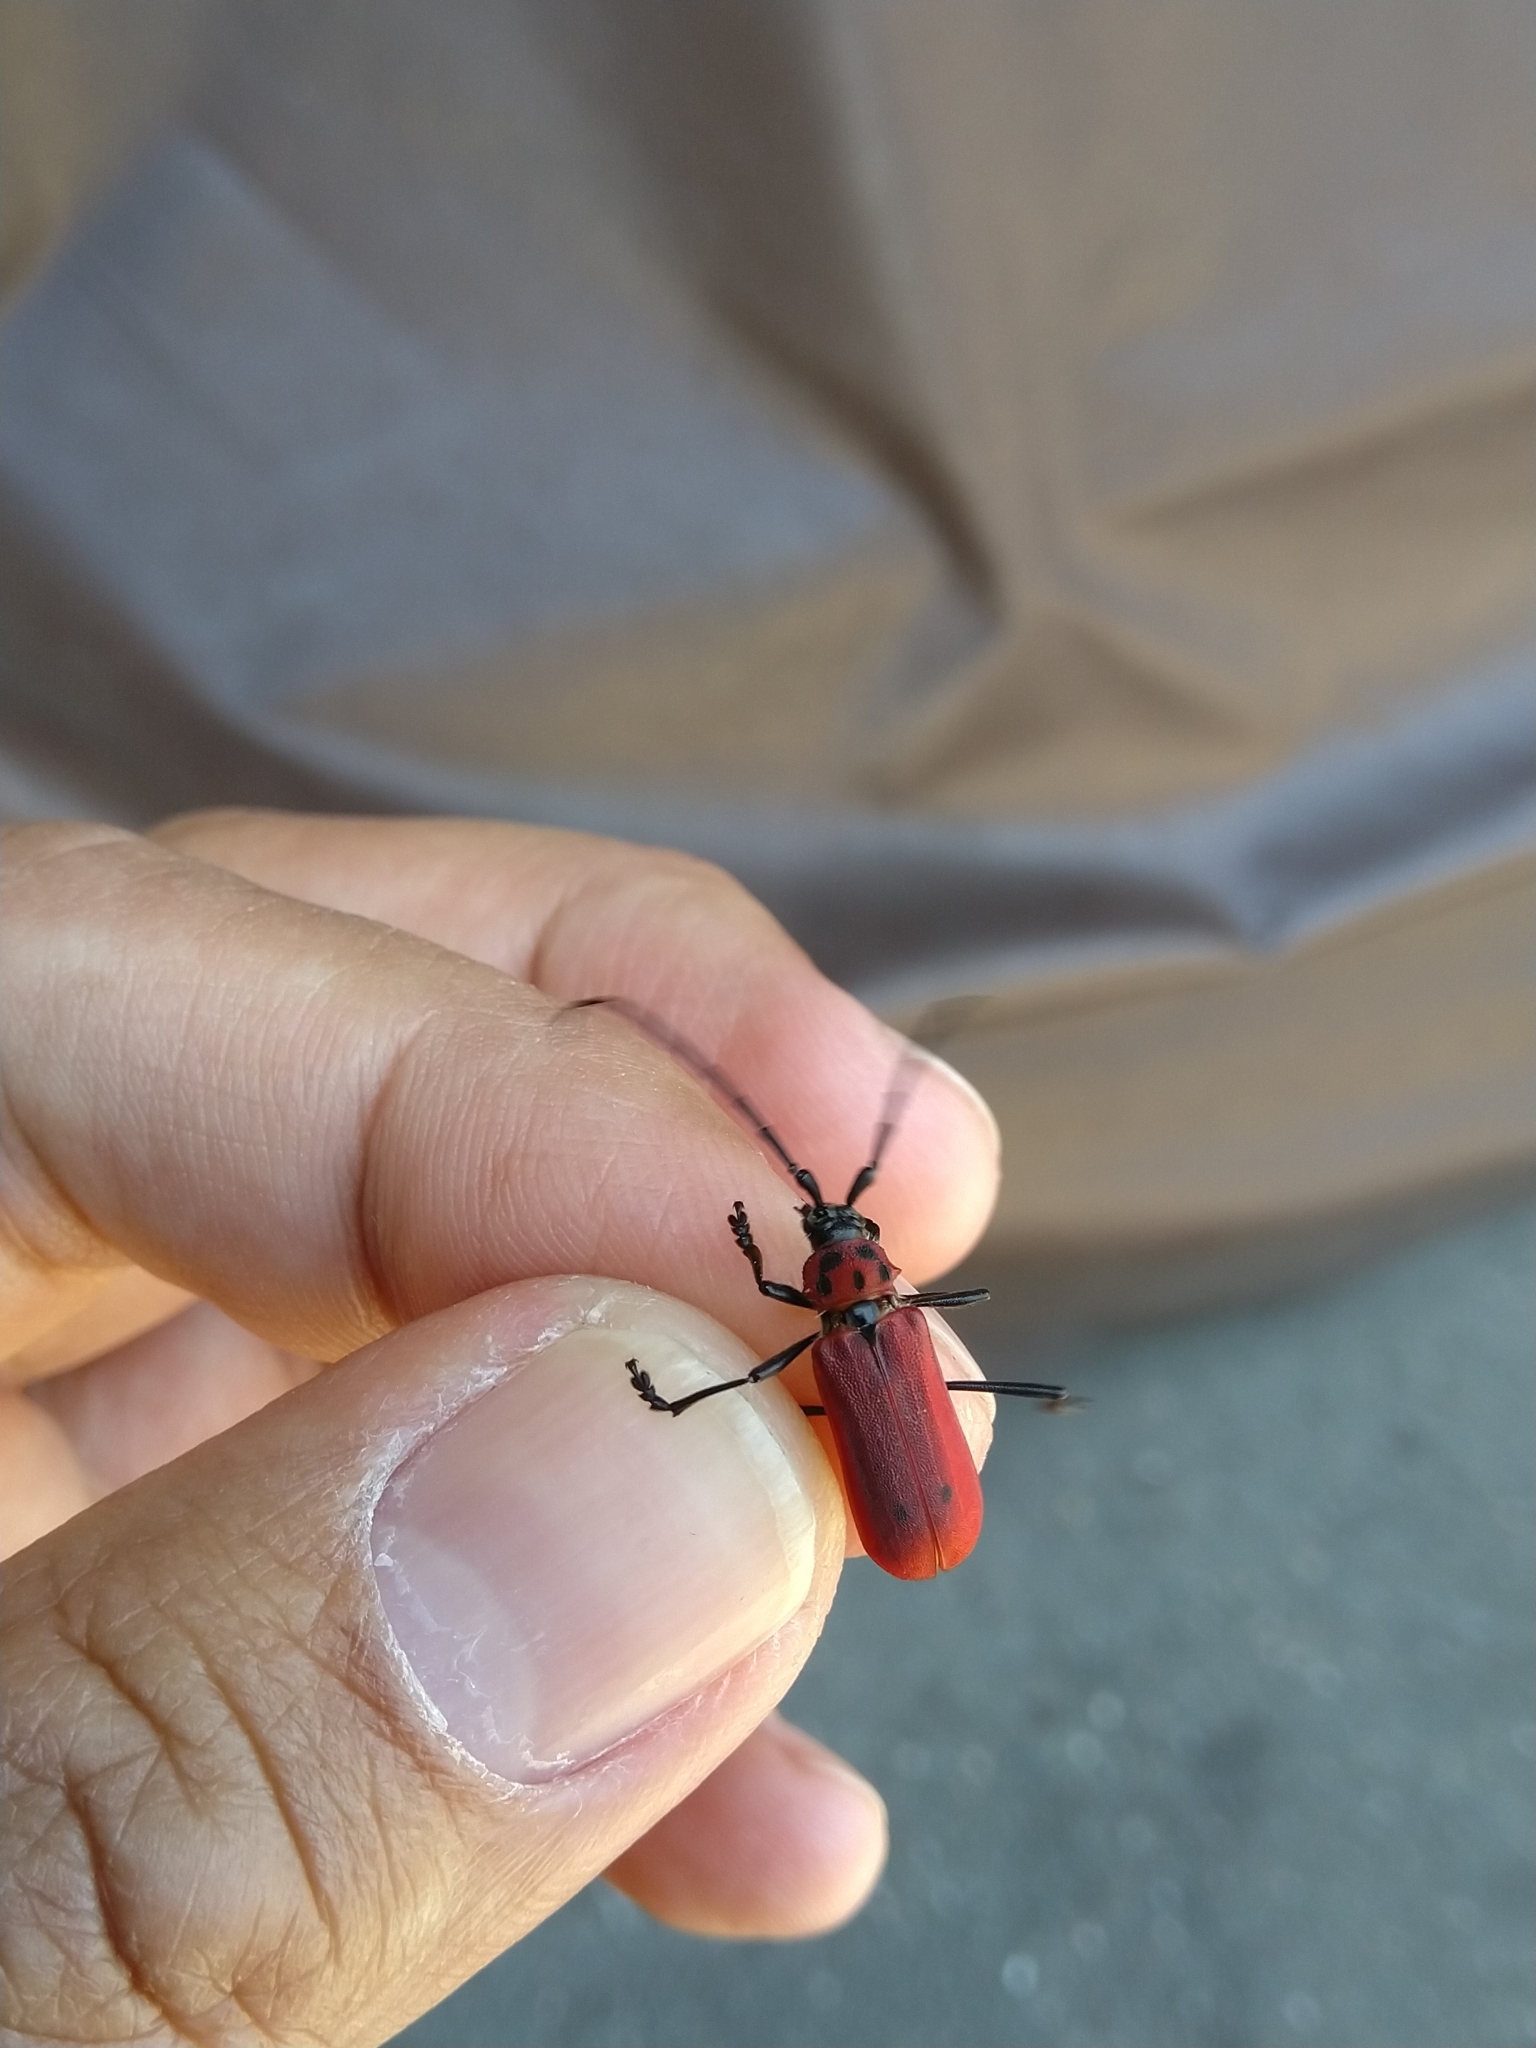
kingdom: Animalia
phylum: Arthropoda
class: Insecta
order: Coleoptera
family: Cerambycidae
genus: Purpuricenus
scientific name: Purpuricenus temminckii
